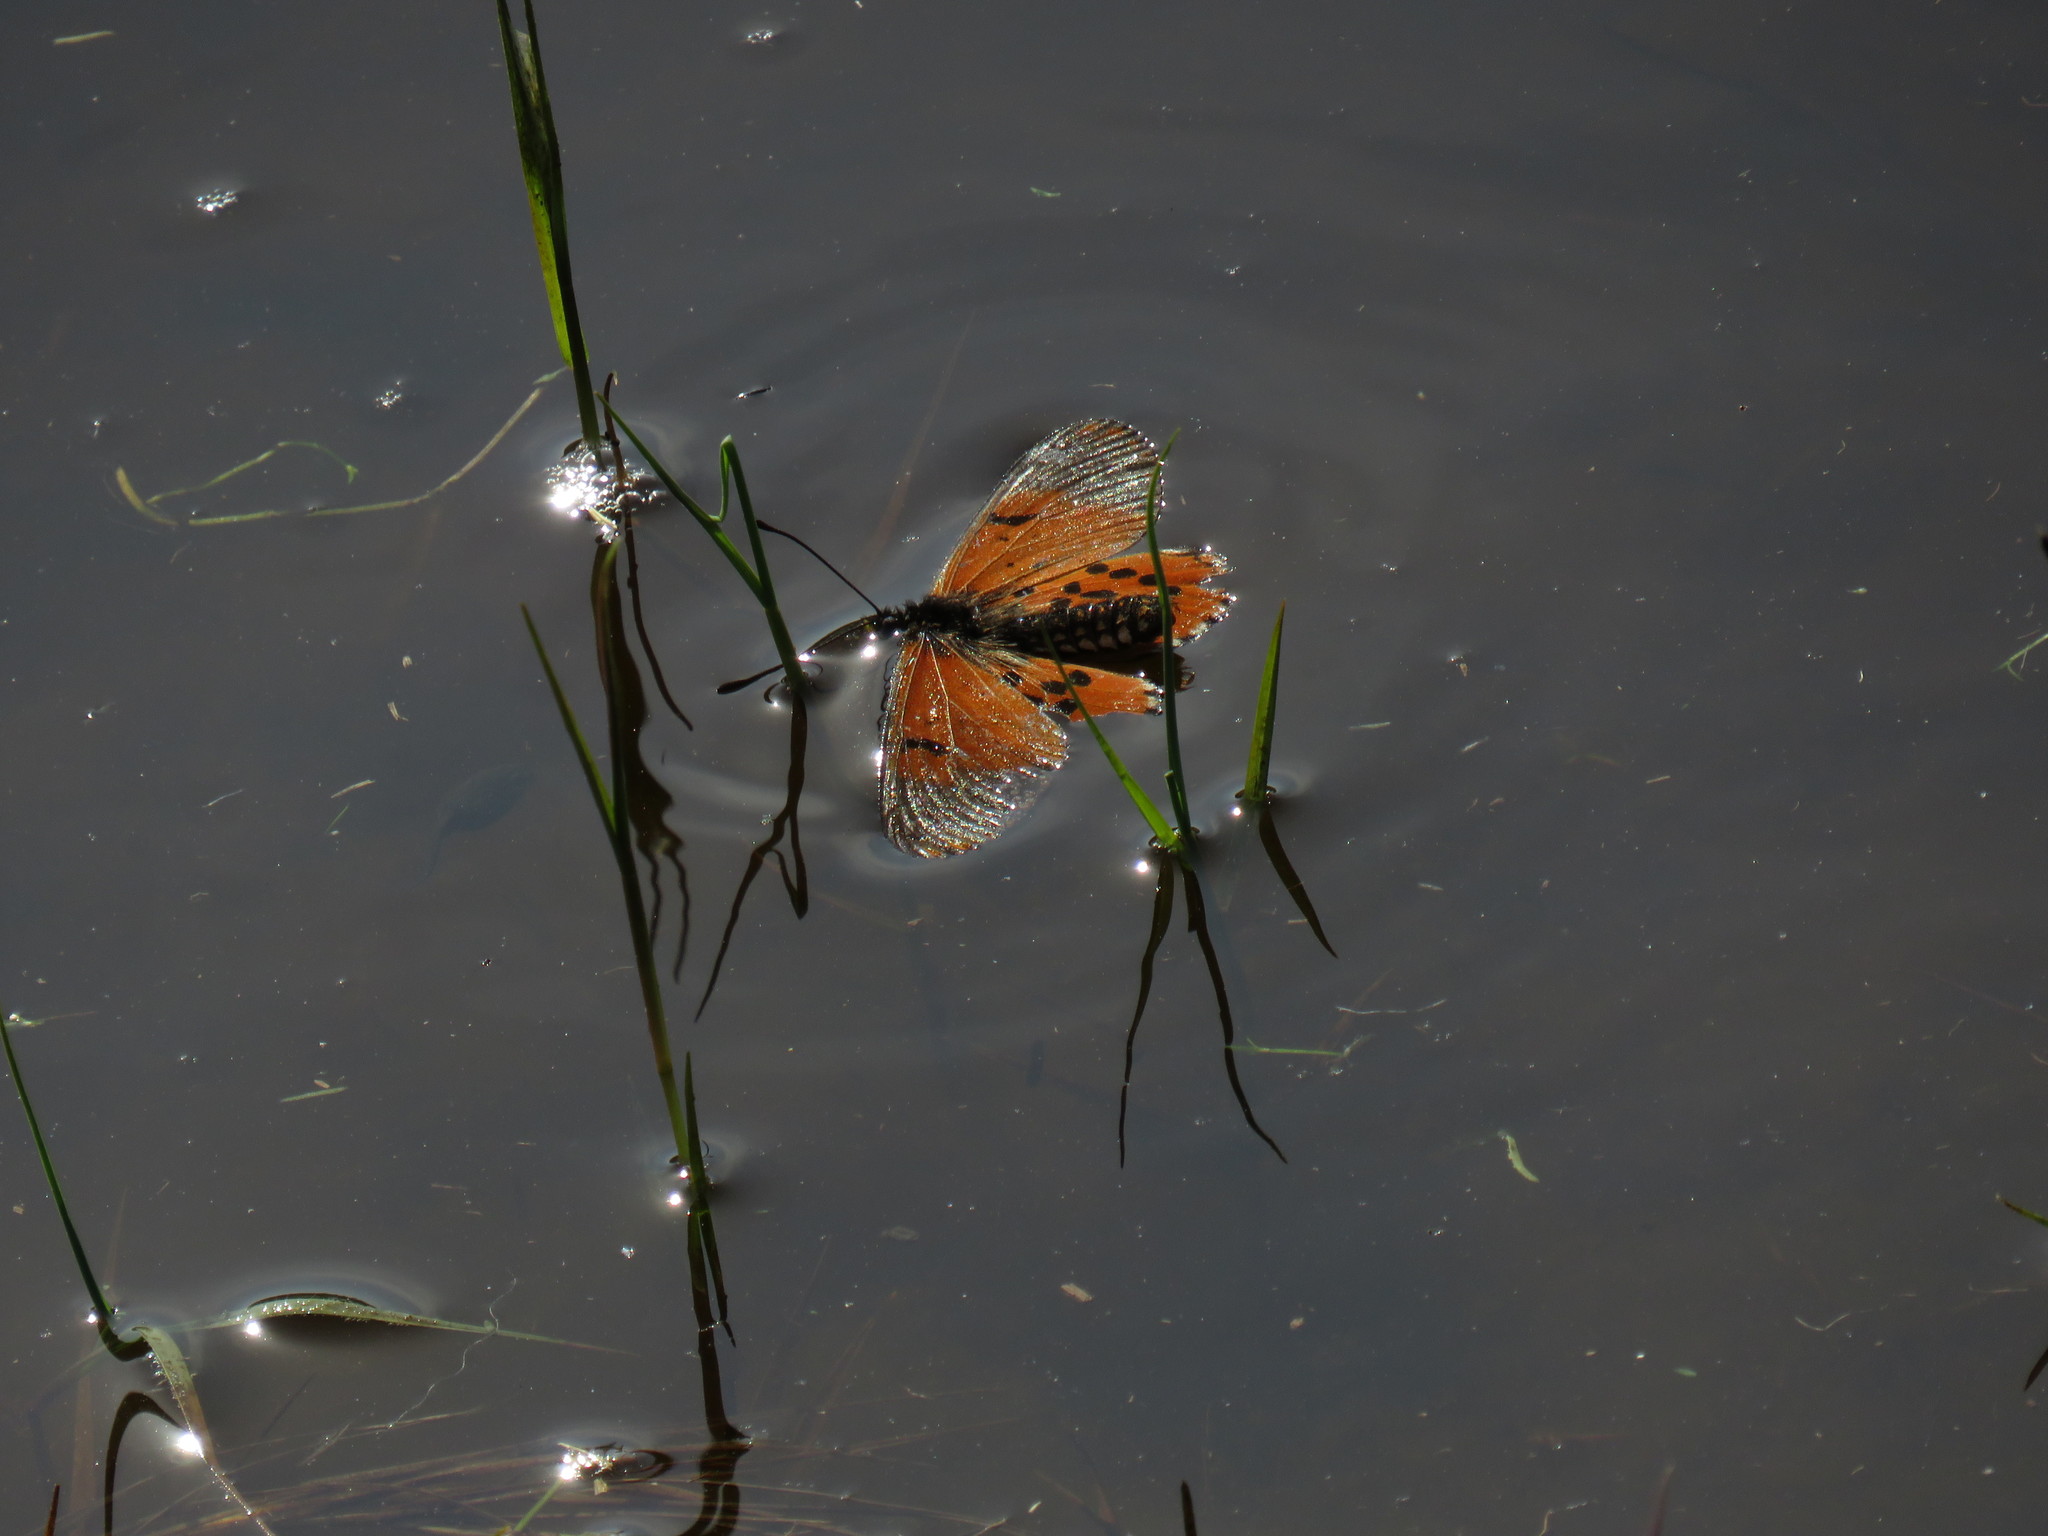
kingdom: Animalia
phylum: Arthropoda
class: Insecta
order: Lepidoptera
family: Nymphalidae
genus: Acraea
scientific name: Acraea horta
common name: Garden acraea
